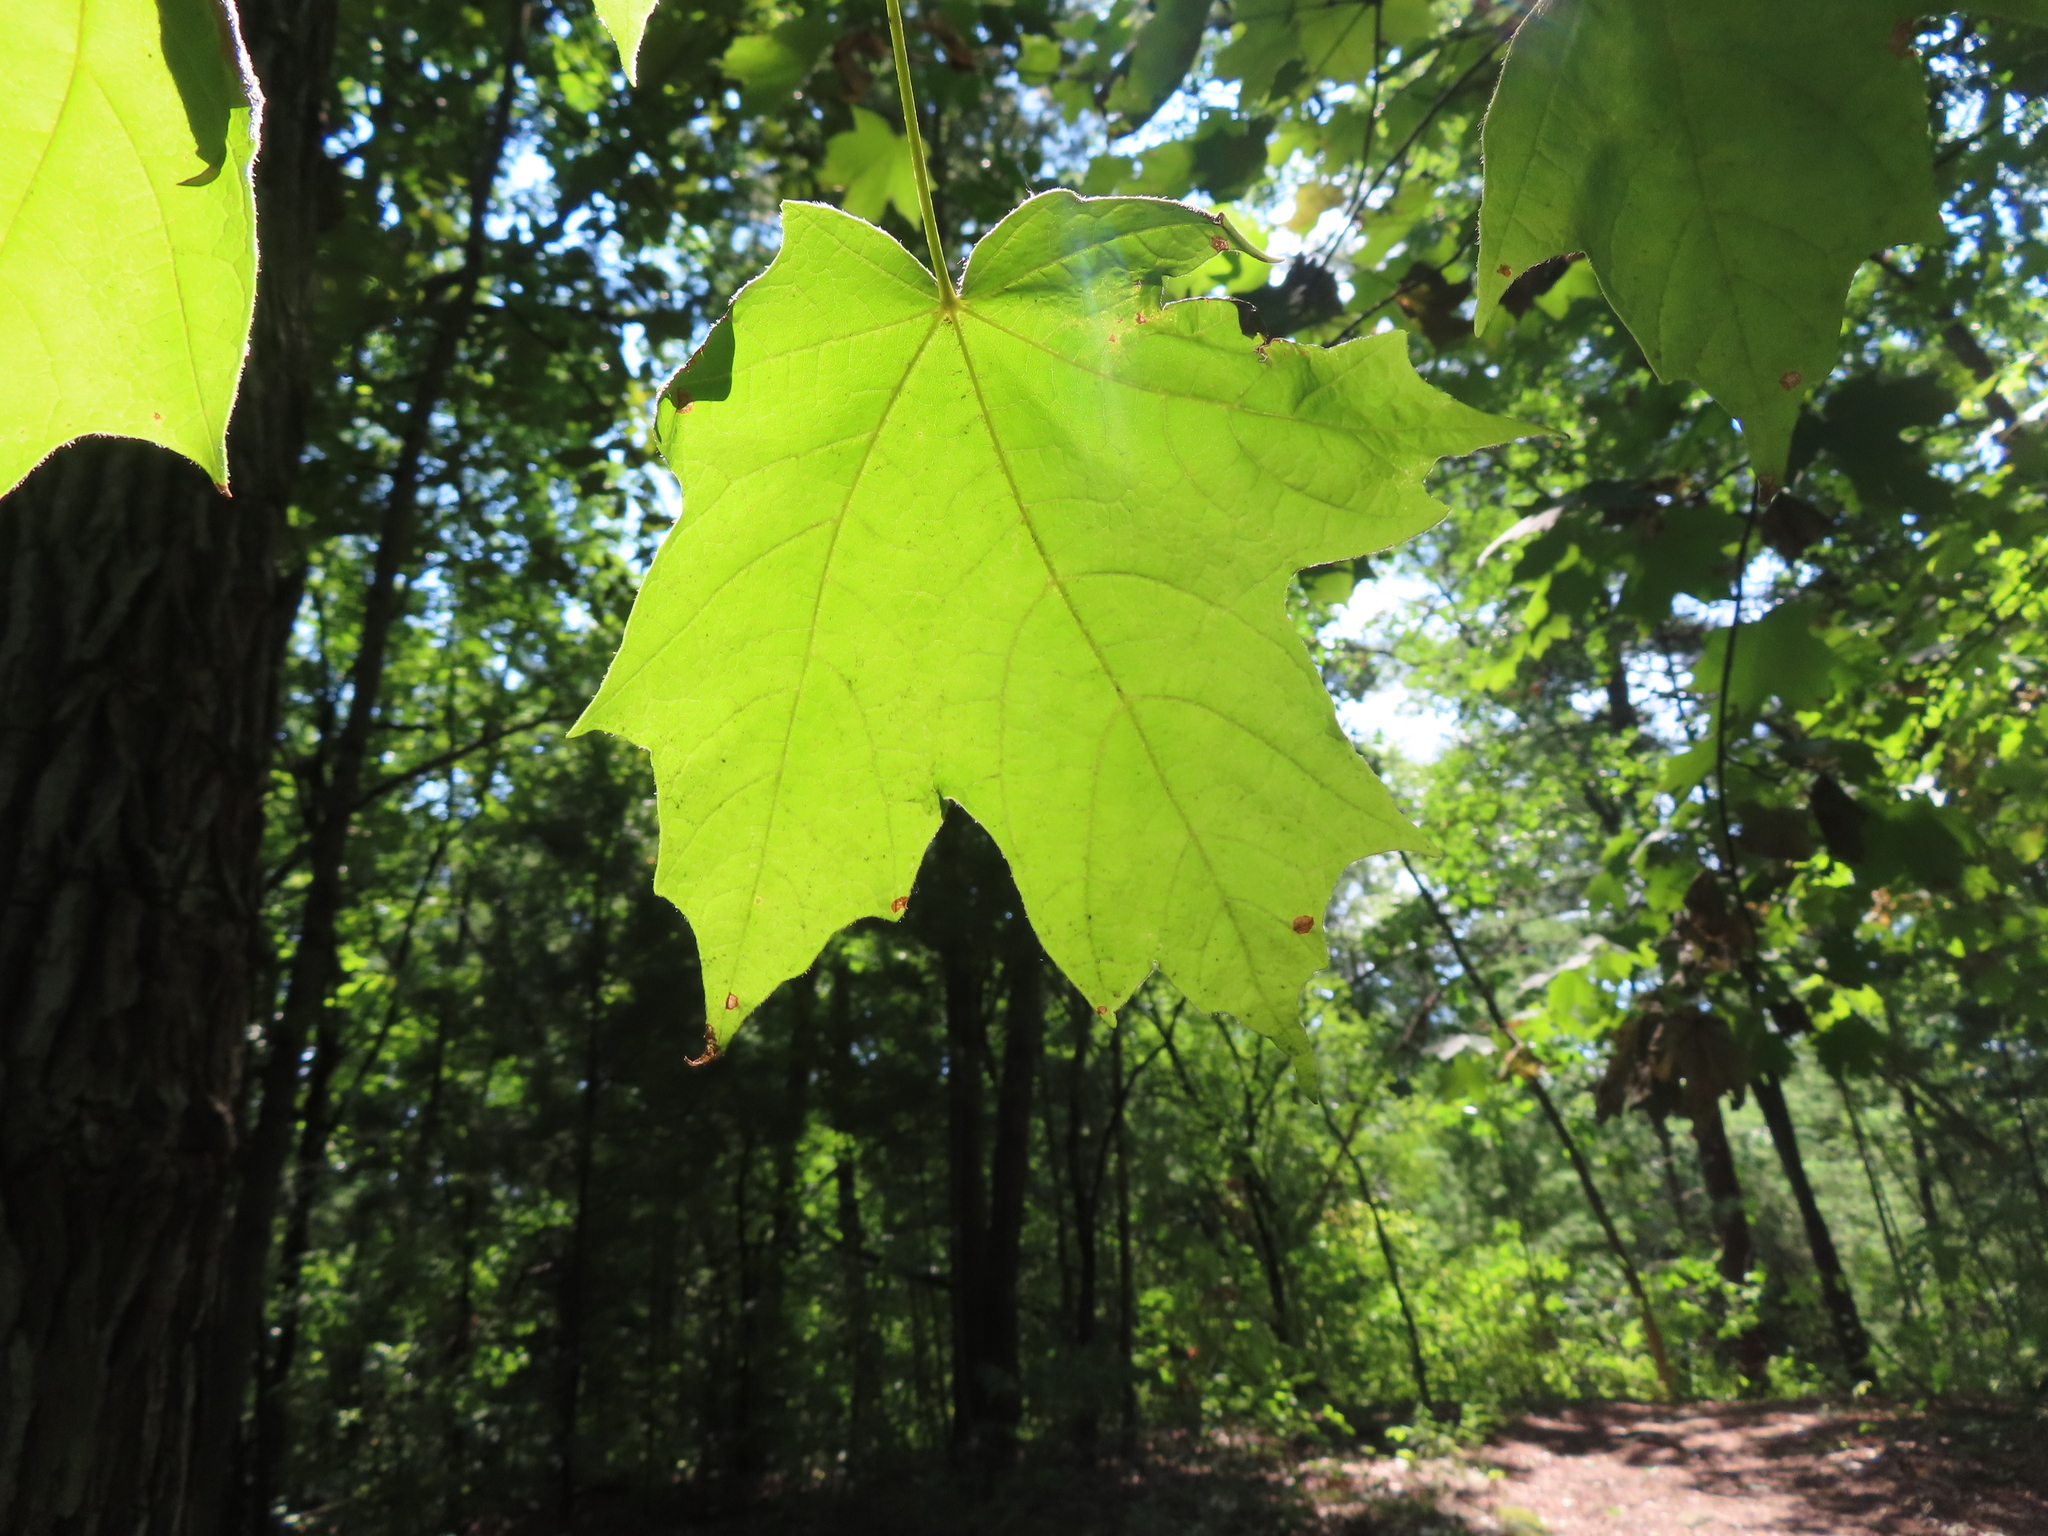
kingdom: Plantae
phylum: Tracheophyta
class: Magnoliopsida
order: Sapindales
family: Sapindaceae
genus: Acer
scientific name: Acer saccharum
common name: Sugar maple
